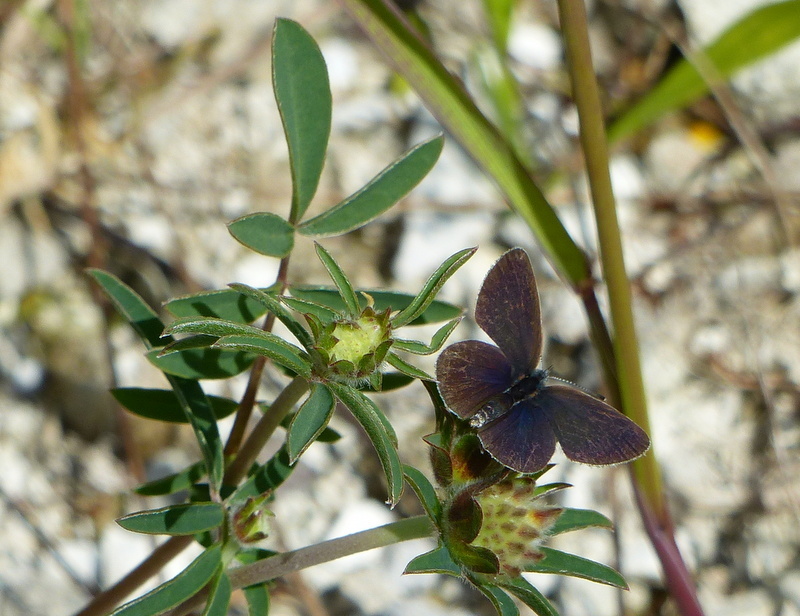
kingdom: Animalia
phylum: Arthropoda
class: Insecta
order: Lepidoptera
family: Lycaenidae
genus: Cupido
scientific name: Cupido minimus
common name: Small blue
